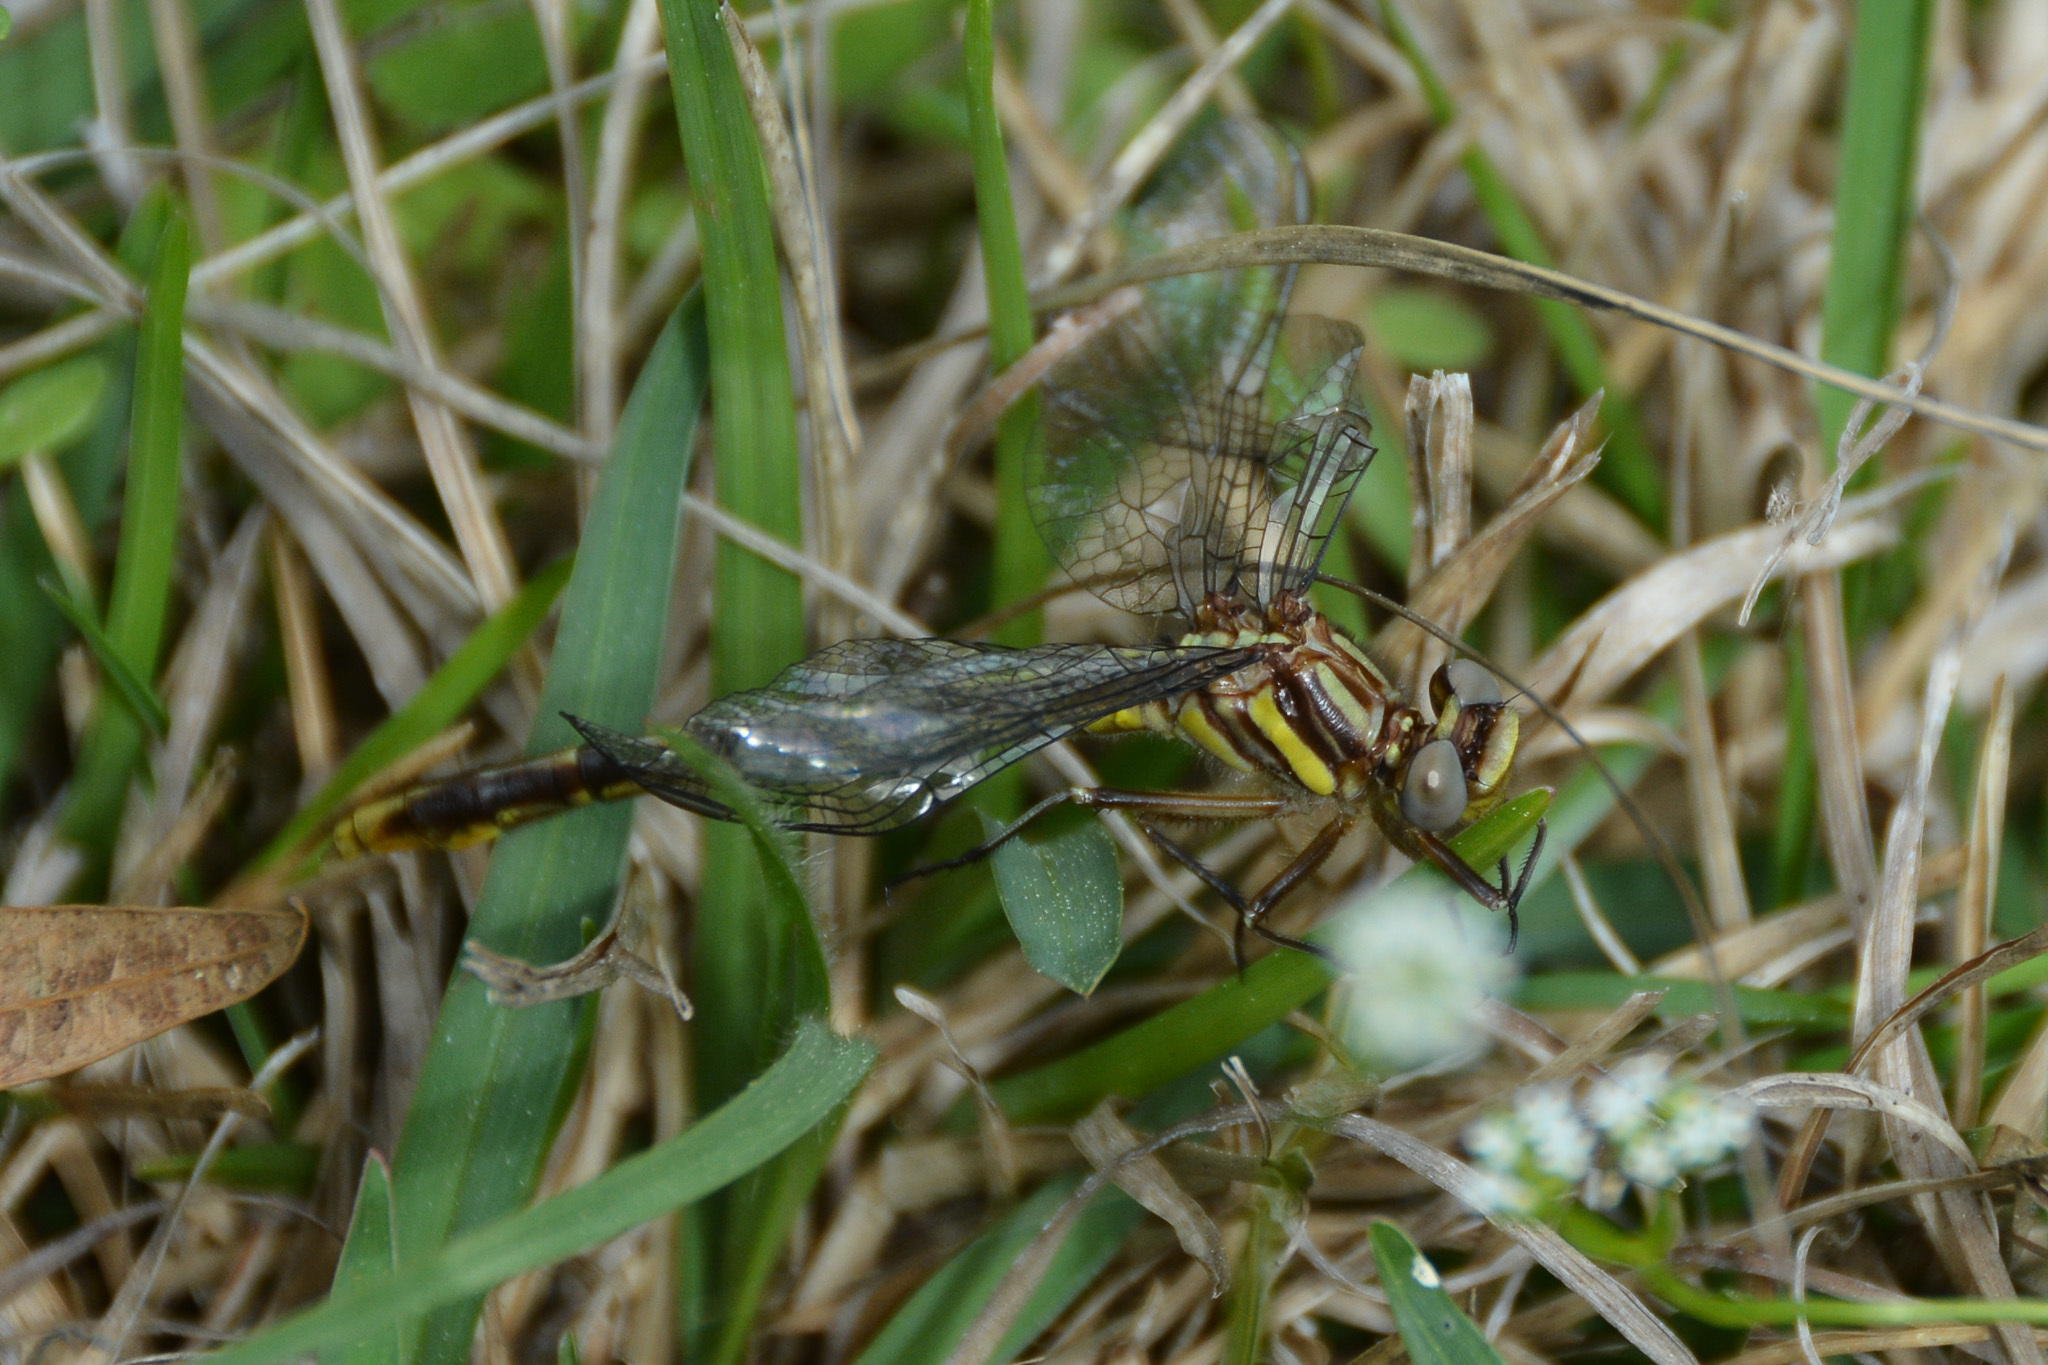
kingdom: Animalia
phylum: Arthropoda
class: Insecta
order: Odonata
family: Gomphidae
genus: Phanogomphus
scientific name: Phanogomphus exilis
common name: Lancet clubtail
